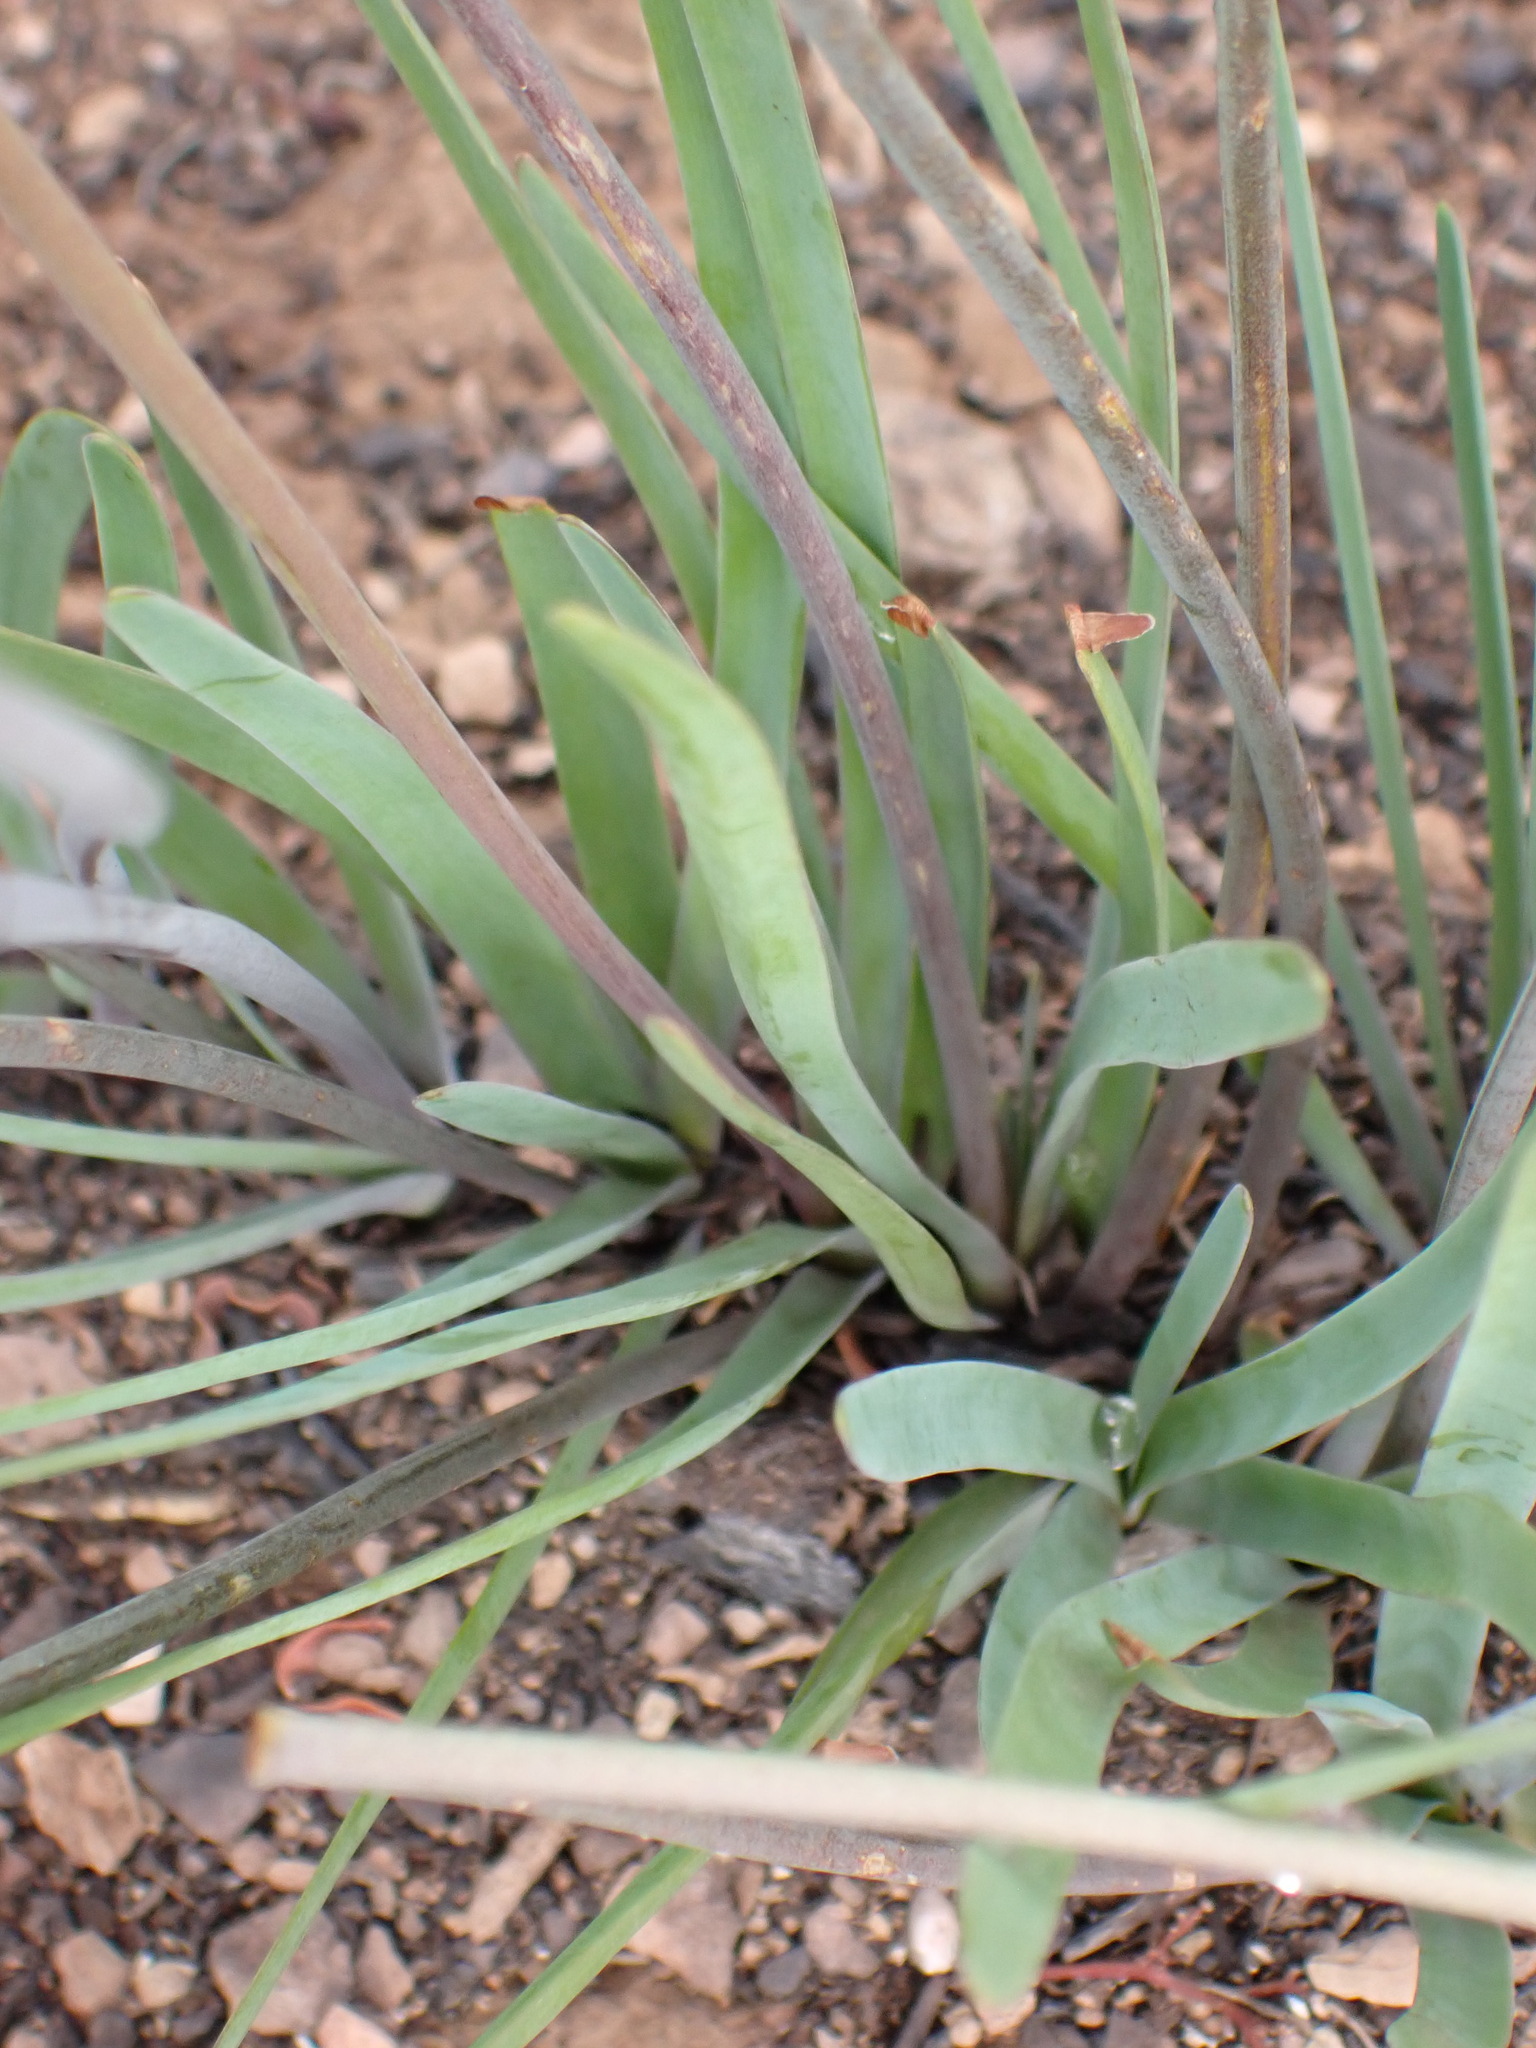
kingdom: Plantae
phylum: Tracheophyta
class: Liliopsida
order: Asparagales
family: Amaryllidaceae
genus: Tulbaghia
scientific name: Tulbaghia violacea
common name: Society garlic
